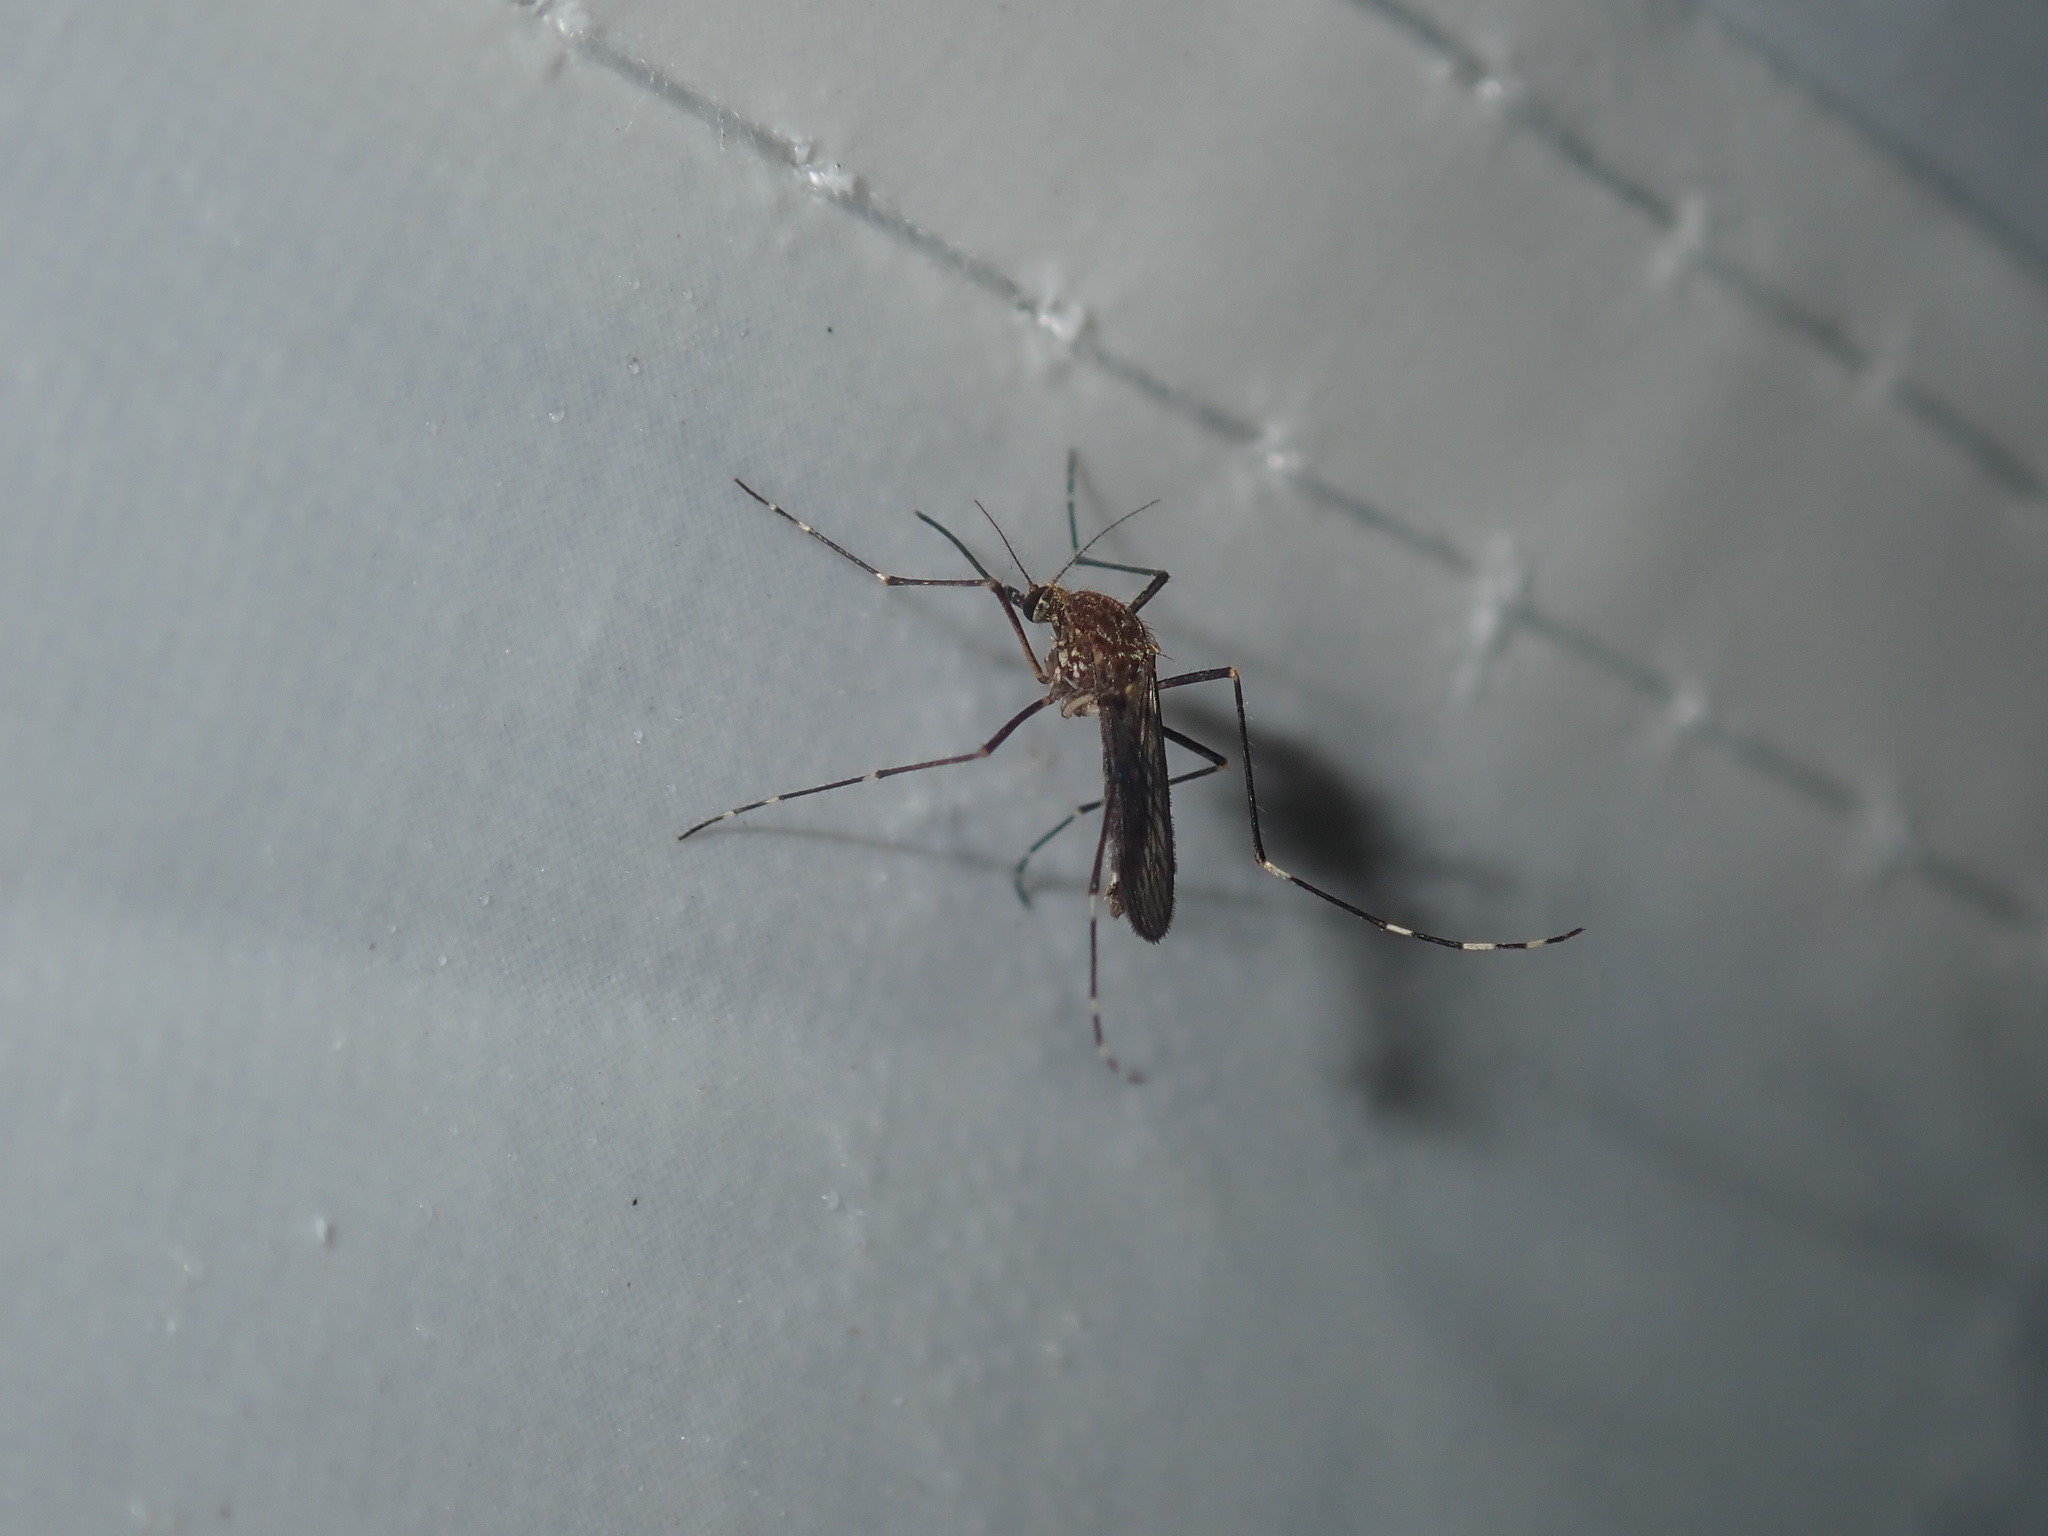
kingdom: Animalia
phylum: Arthropoda
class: Insecta
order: Diptera
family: Culicidae
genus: Aedes
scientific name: Aedes rubrithorax
